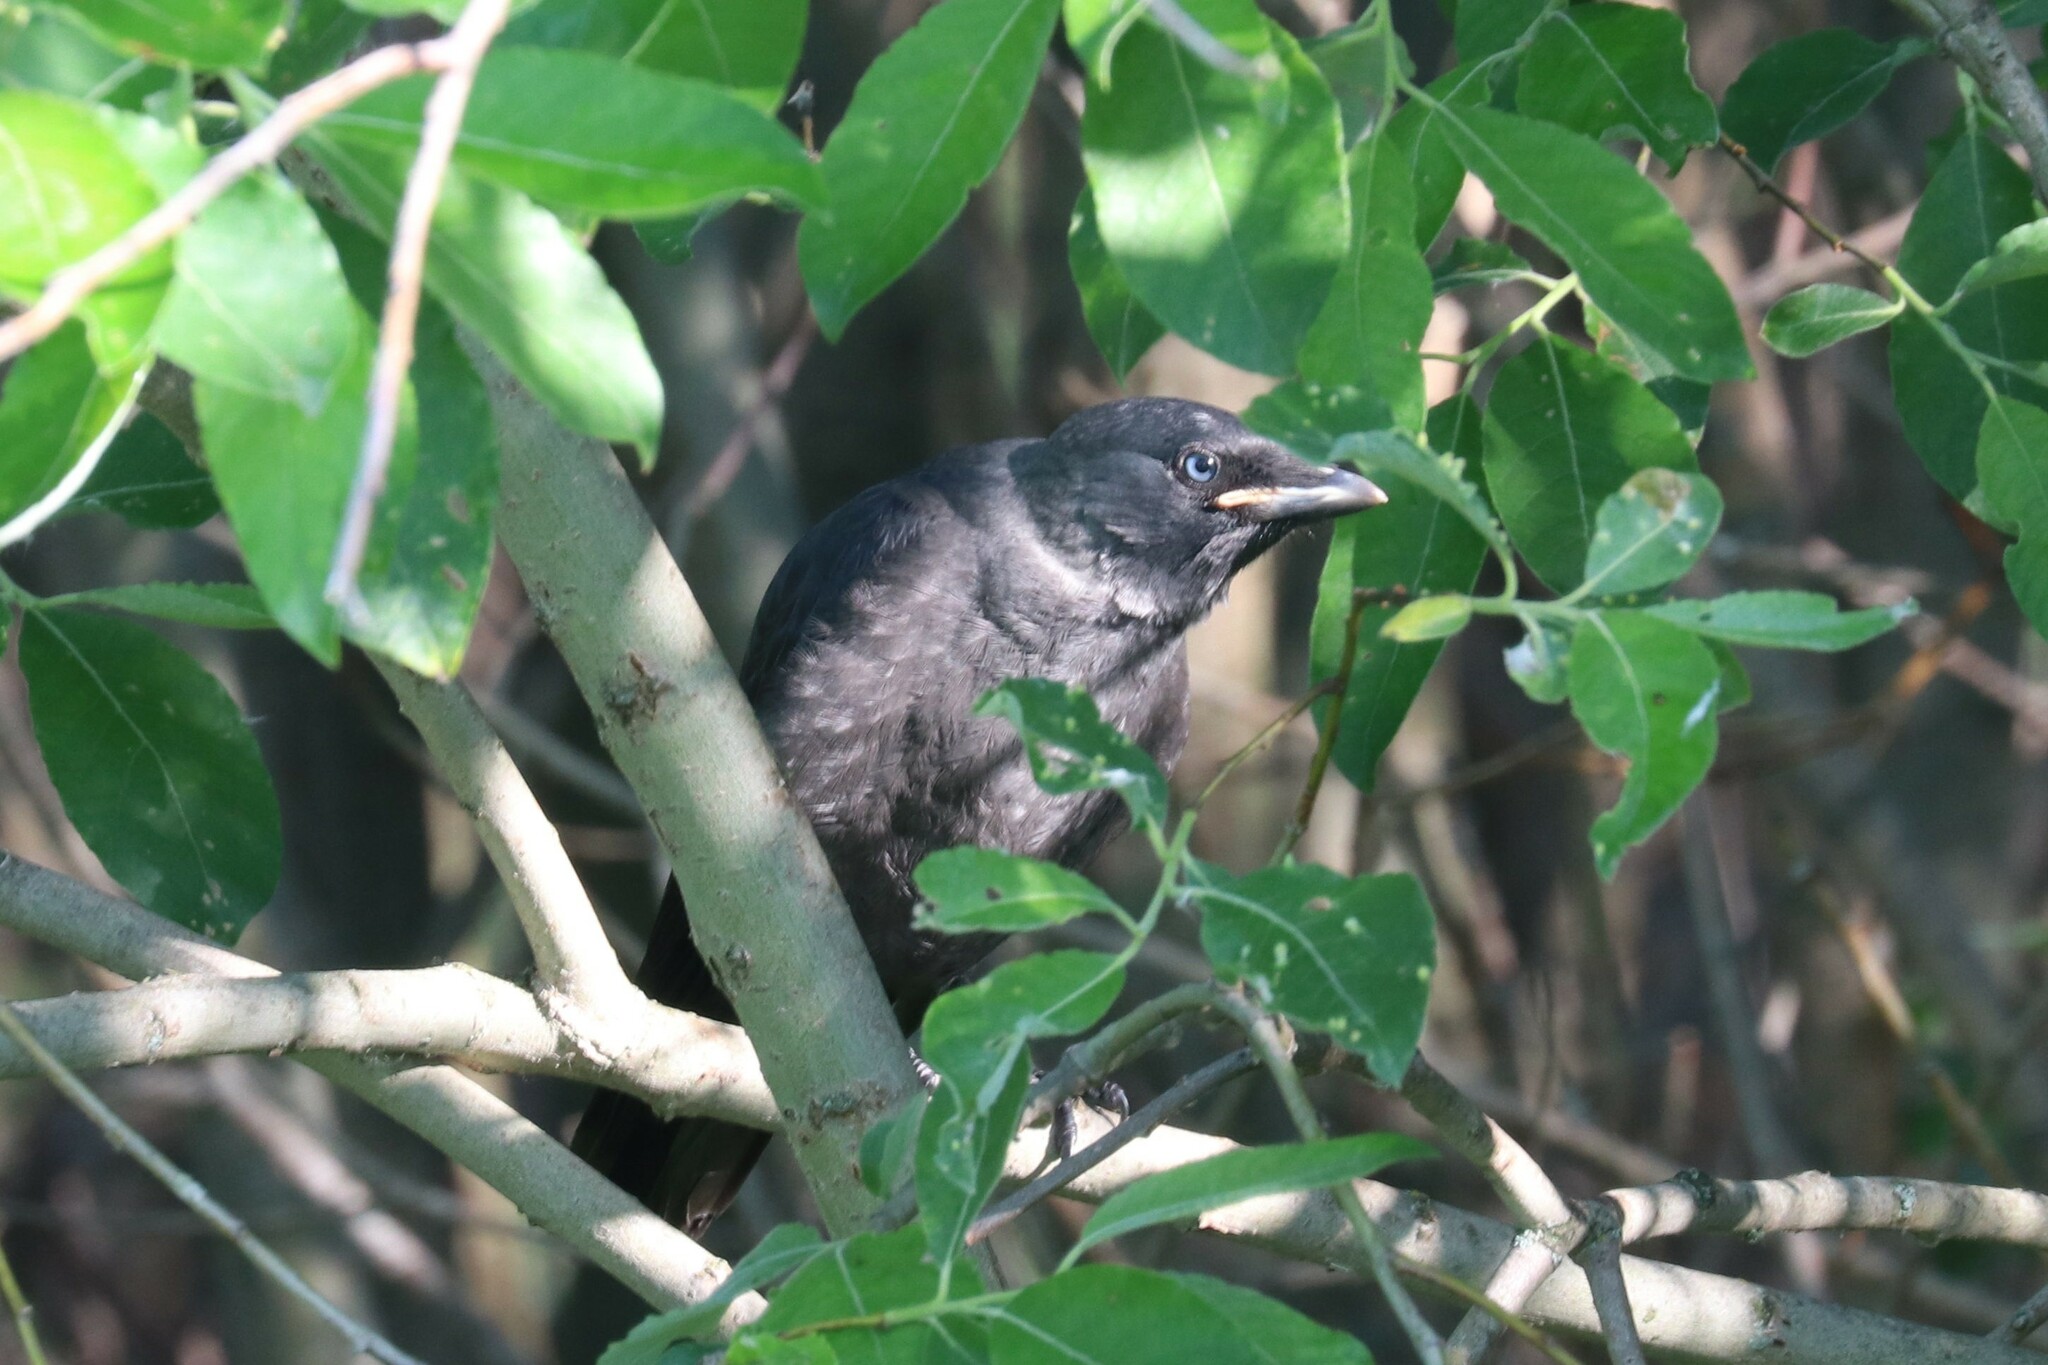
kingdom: Animalia
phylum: Chordata
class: Aves
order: Passeriformes
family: Corvidae
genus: Coloeus
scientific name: Coloeus monedula
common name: Western jackdaw
